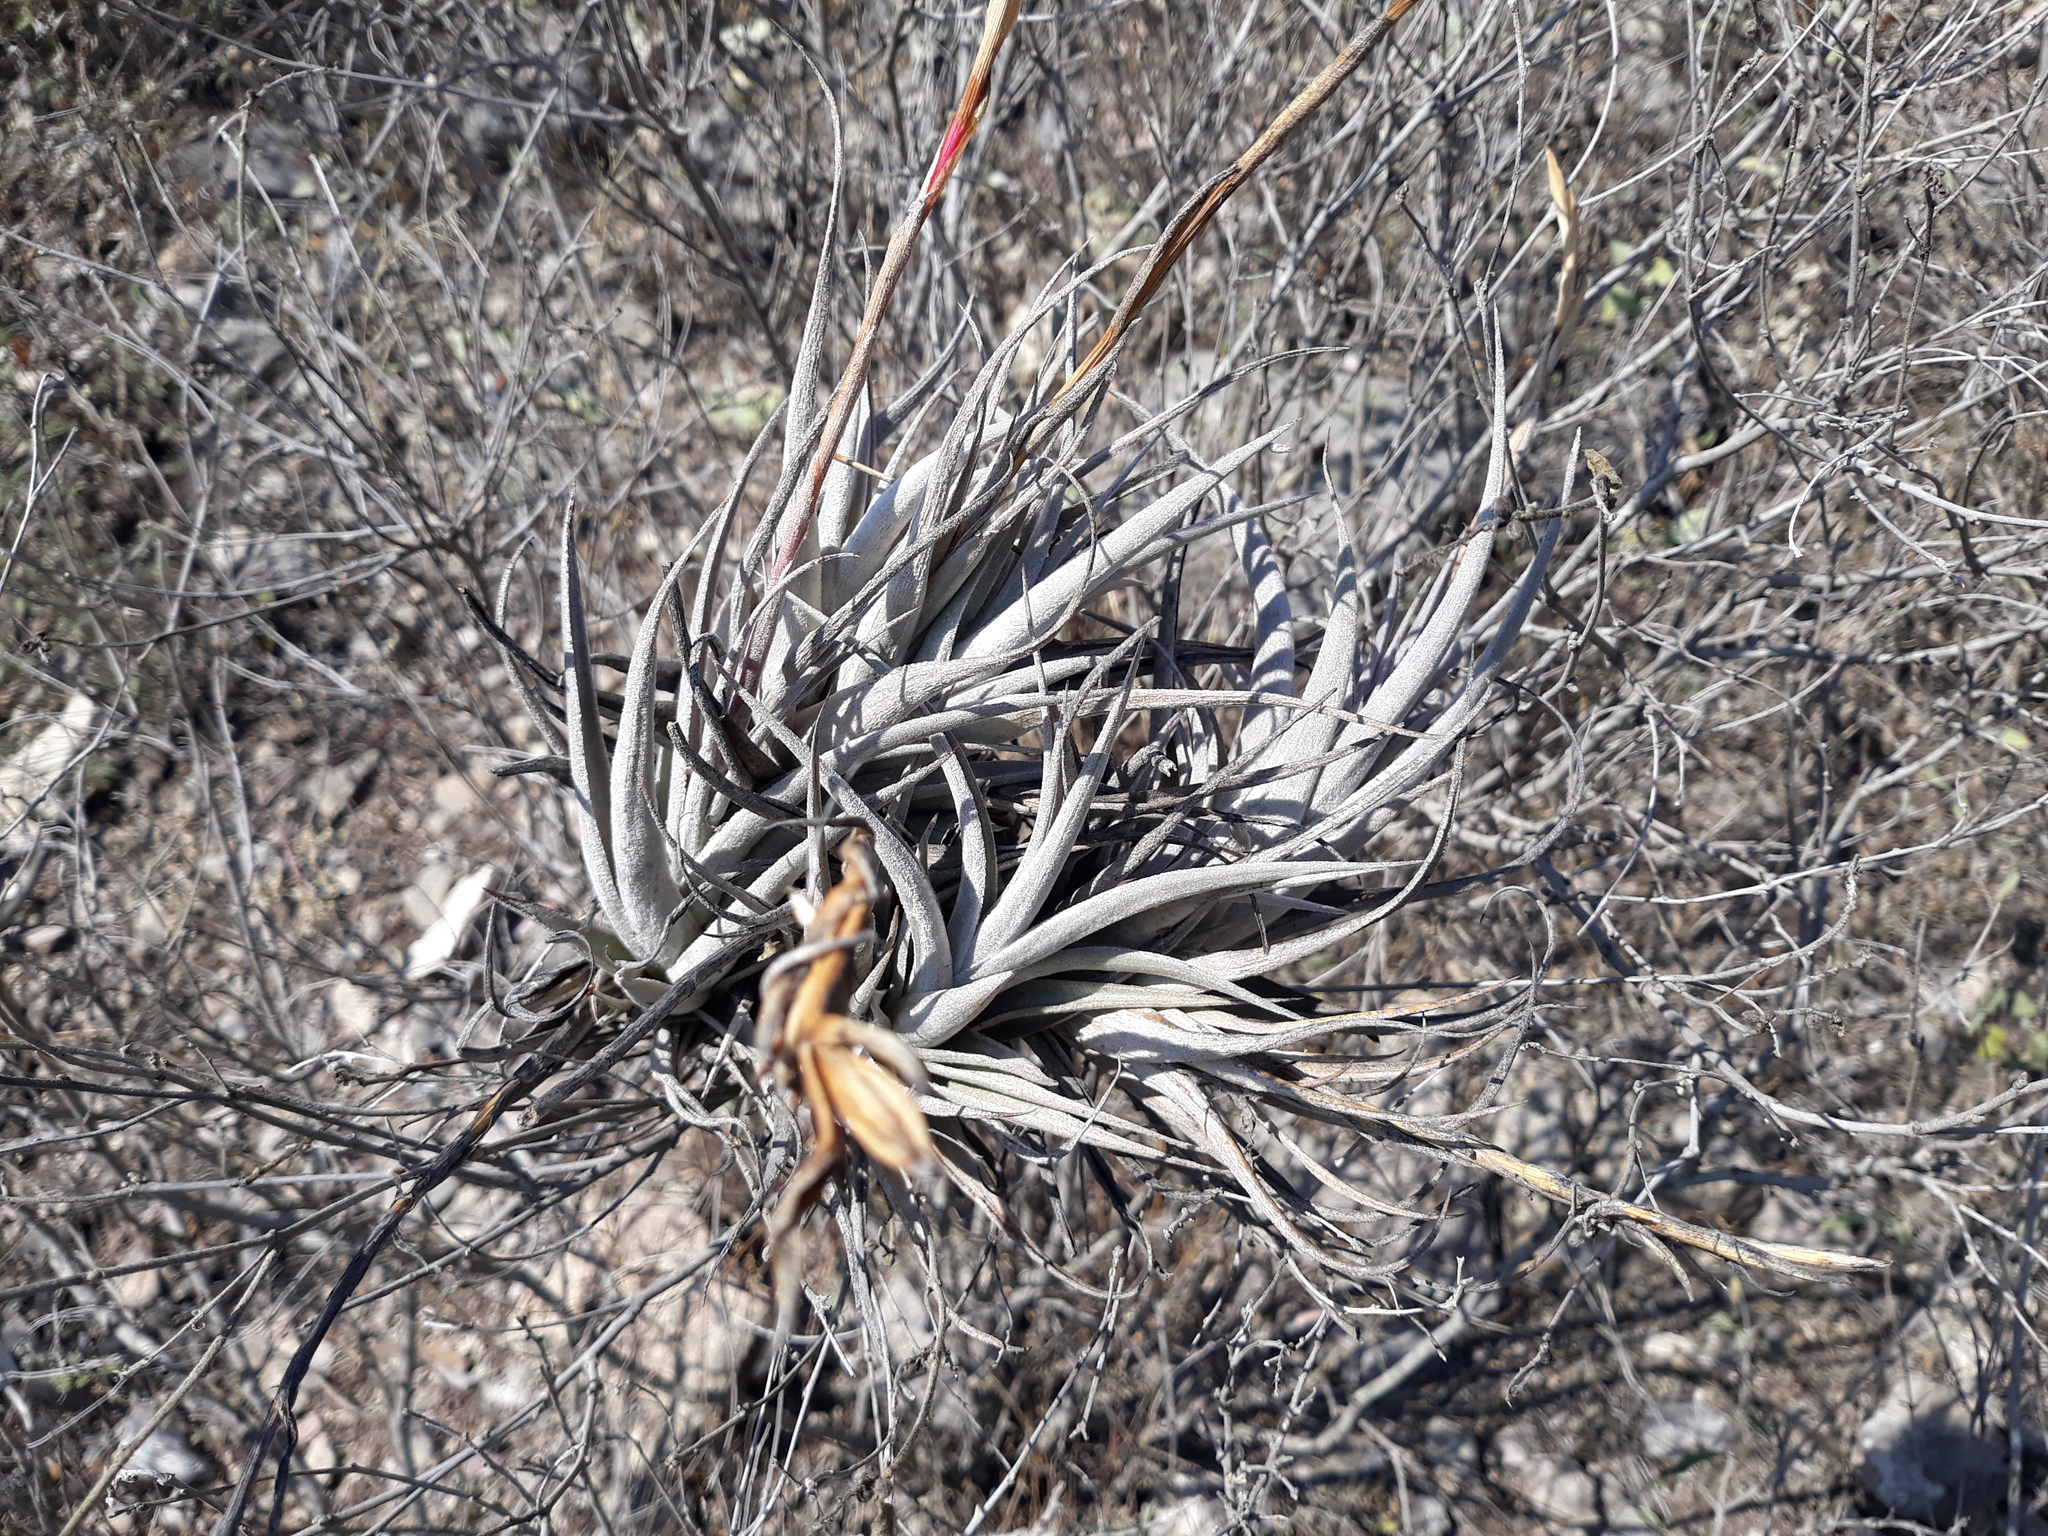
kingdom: Plantae
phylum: Tracheophyta
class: Liliopsida
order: Poales
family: Bromeliaceae
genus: Tillandsia
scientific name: Tillandsia albida
